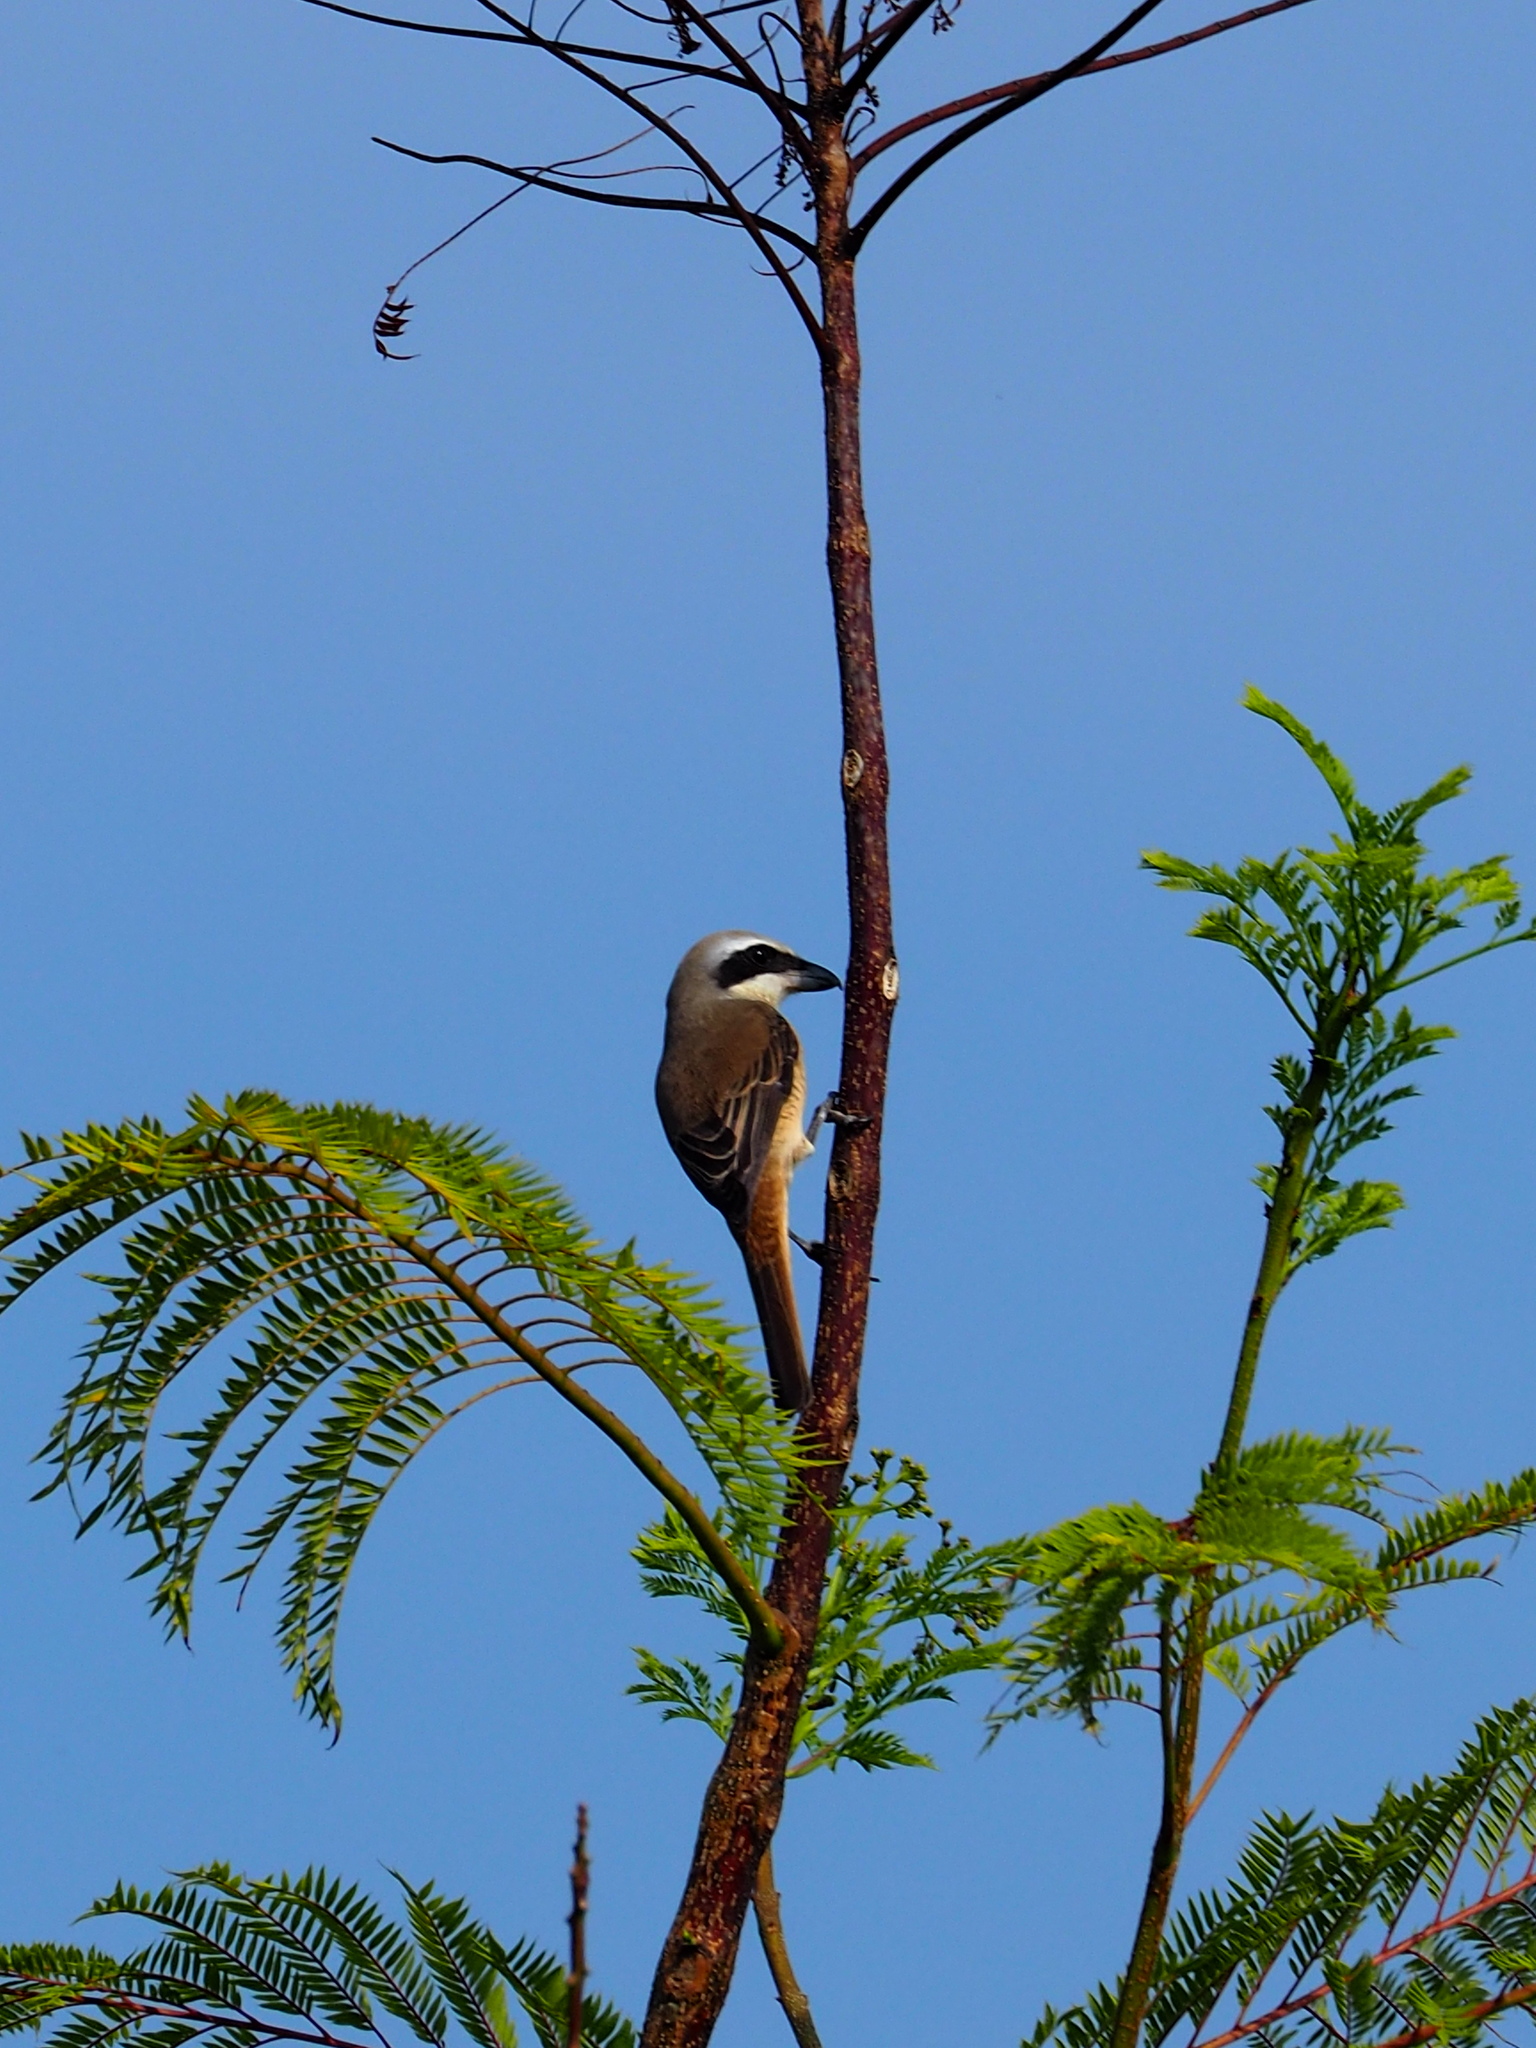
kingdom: Animalia
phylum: Chordata
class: Aves
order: Passeriformes
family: Laniidae
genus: Lanius
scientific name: Lanius cristatus
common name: Brown shrike
